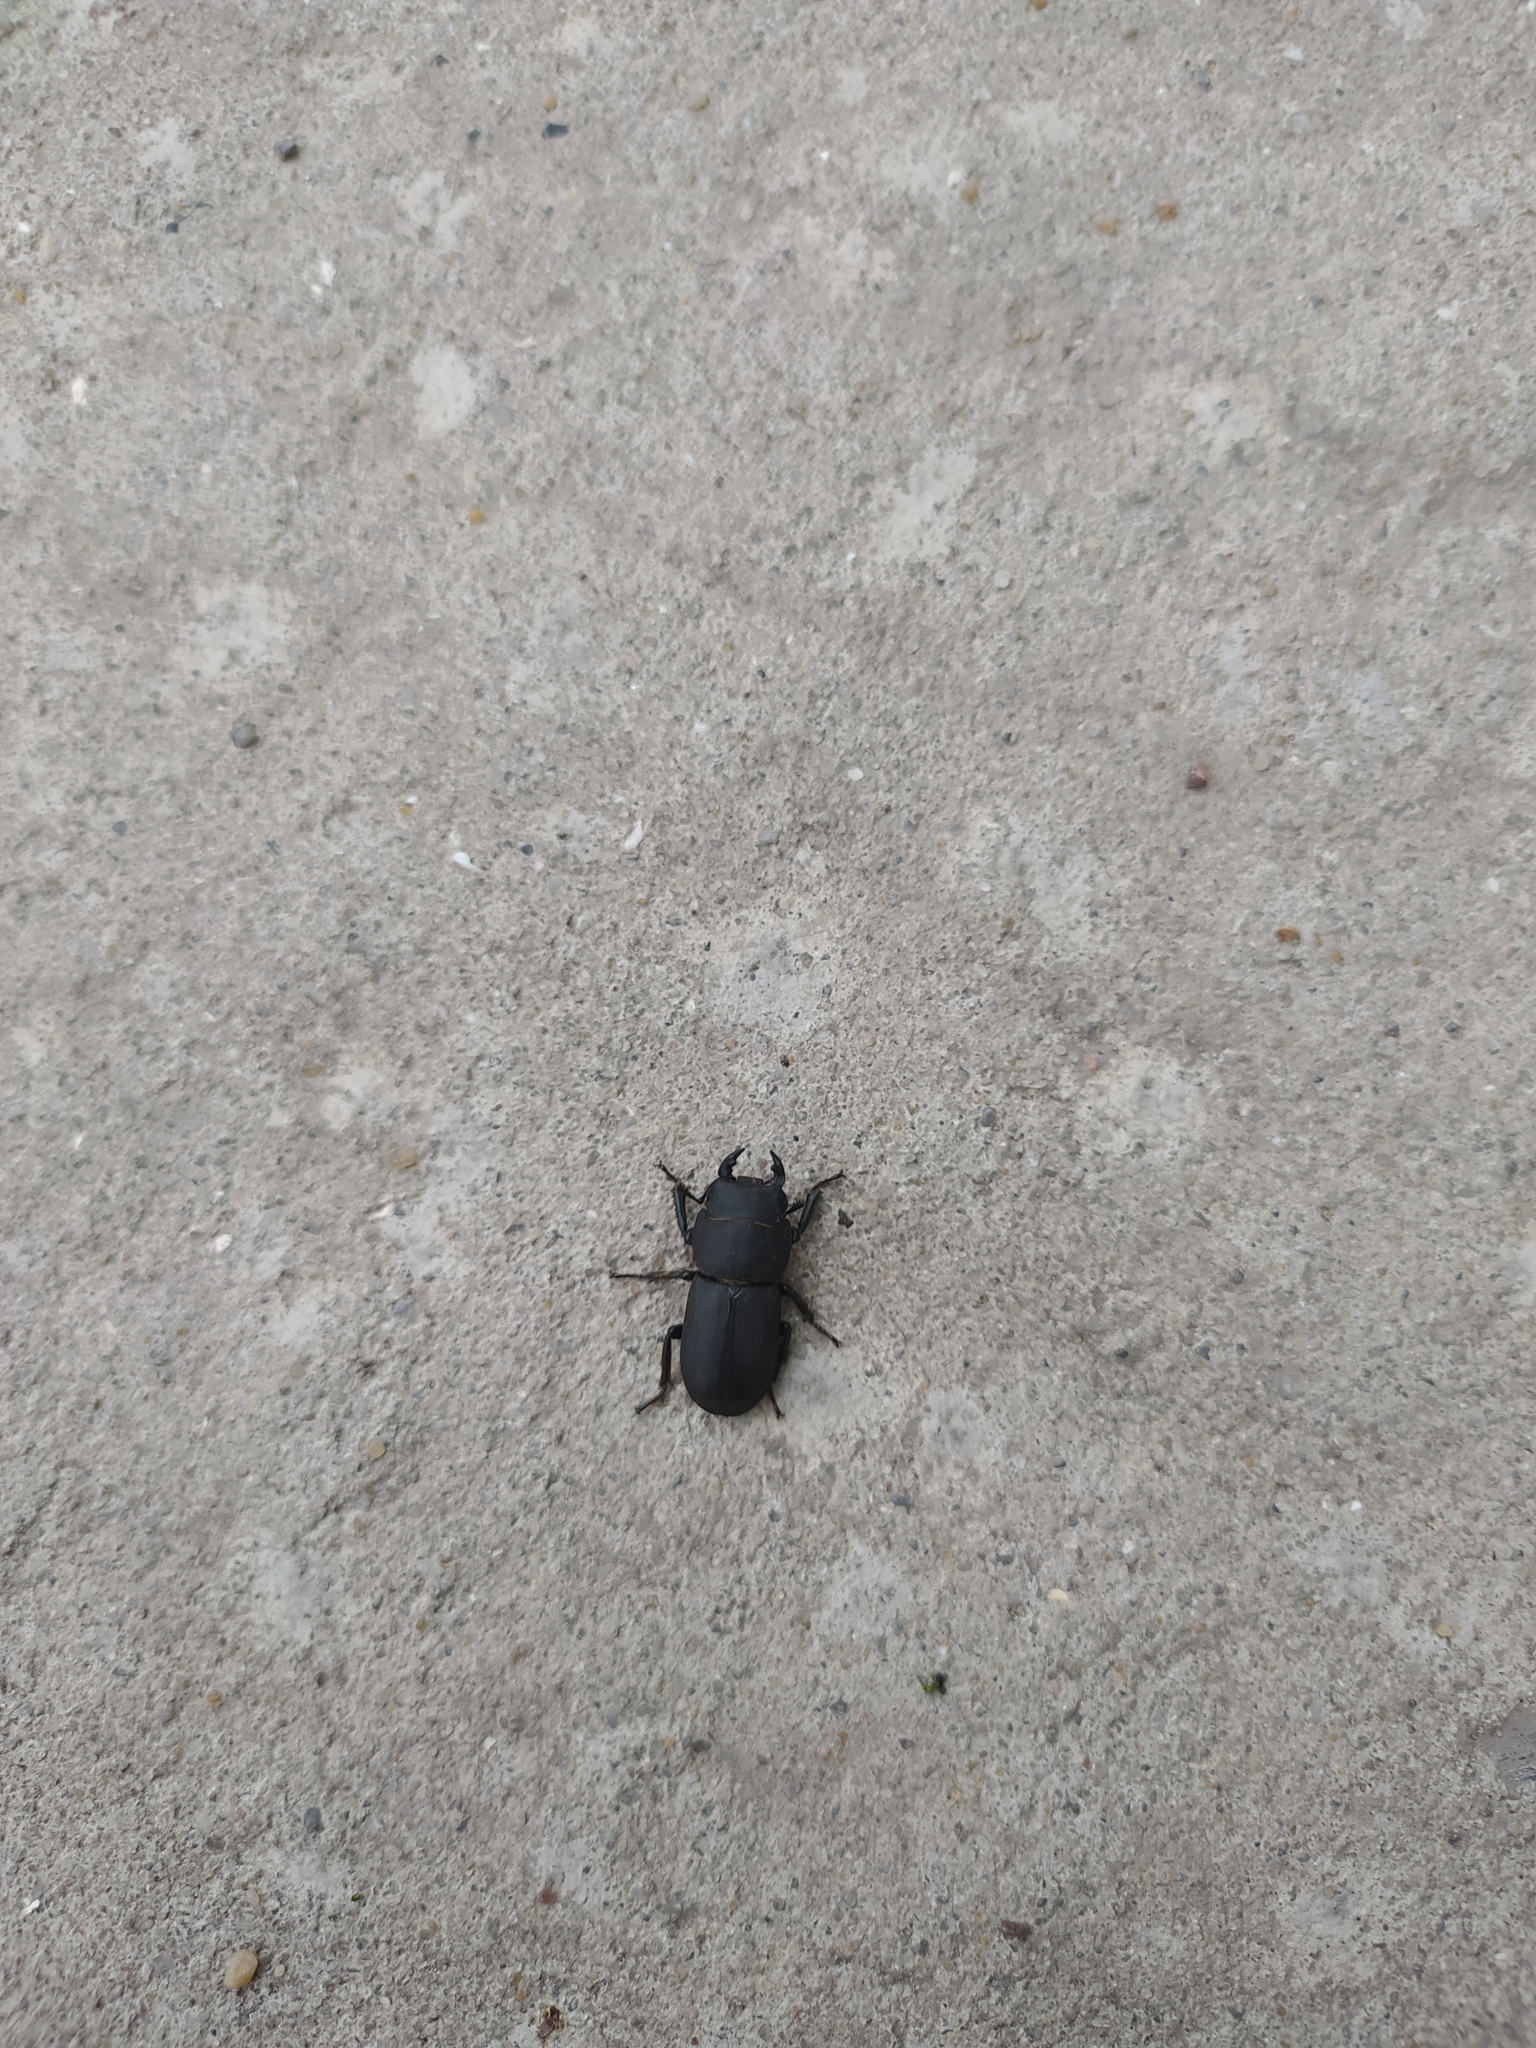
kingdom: Animalia
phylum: Arthropoda
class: Insecta
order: Coleoptera
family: Lucanidae
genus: Dorcus
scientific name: Dorcus parallelipipedus
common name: Lesser stag beetle
